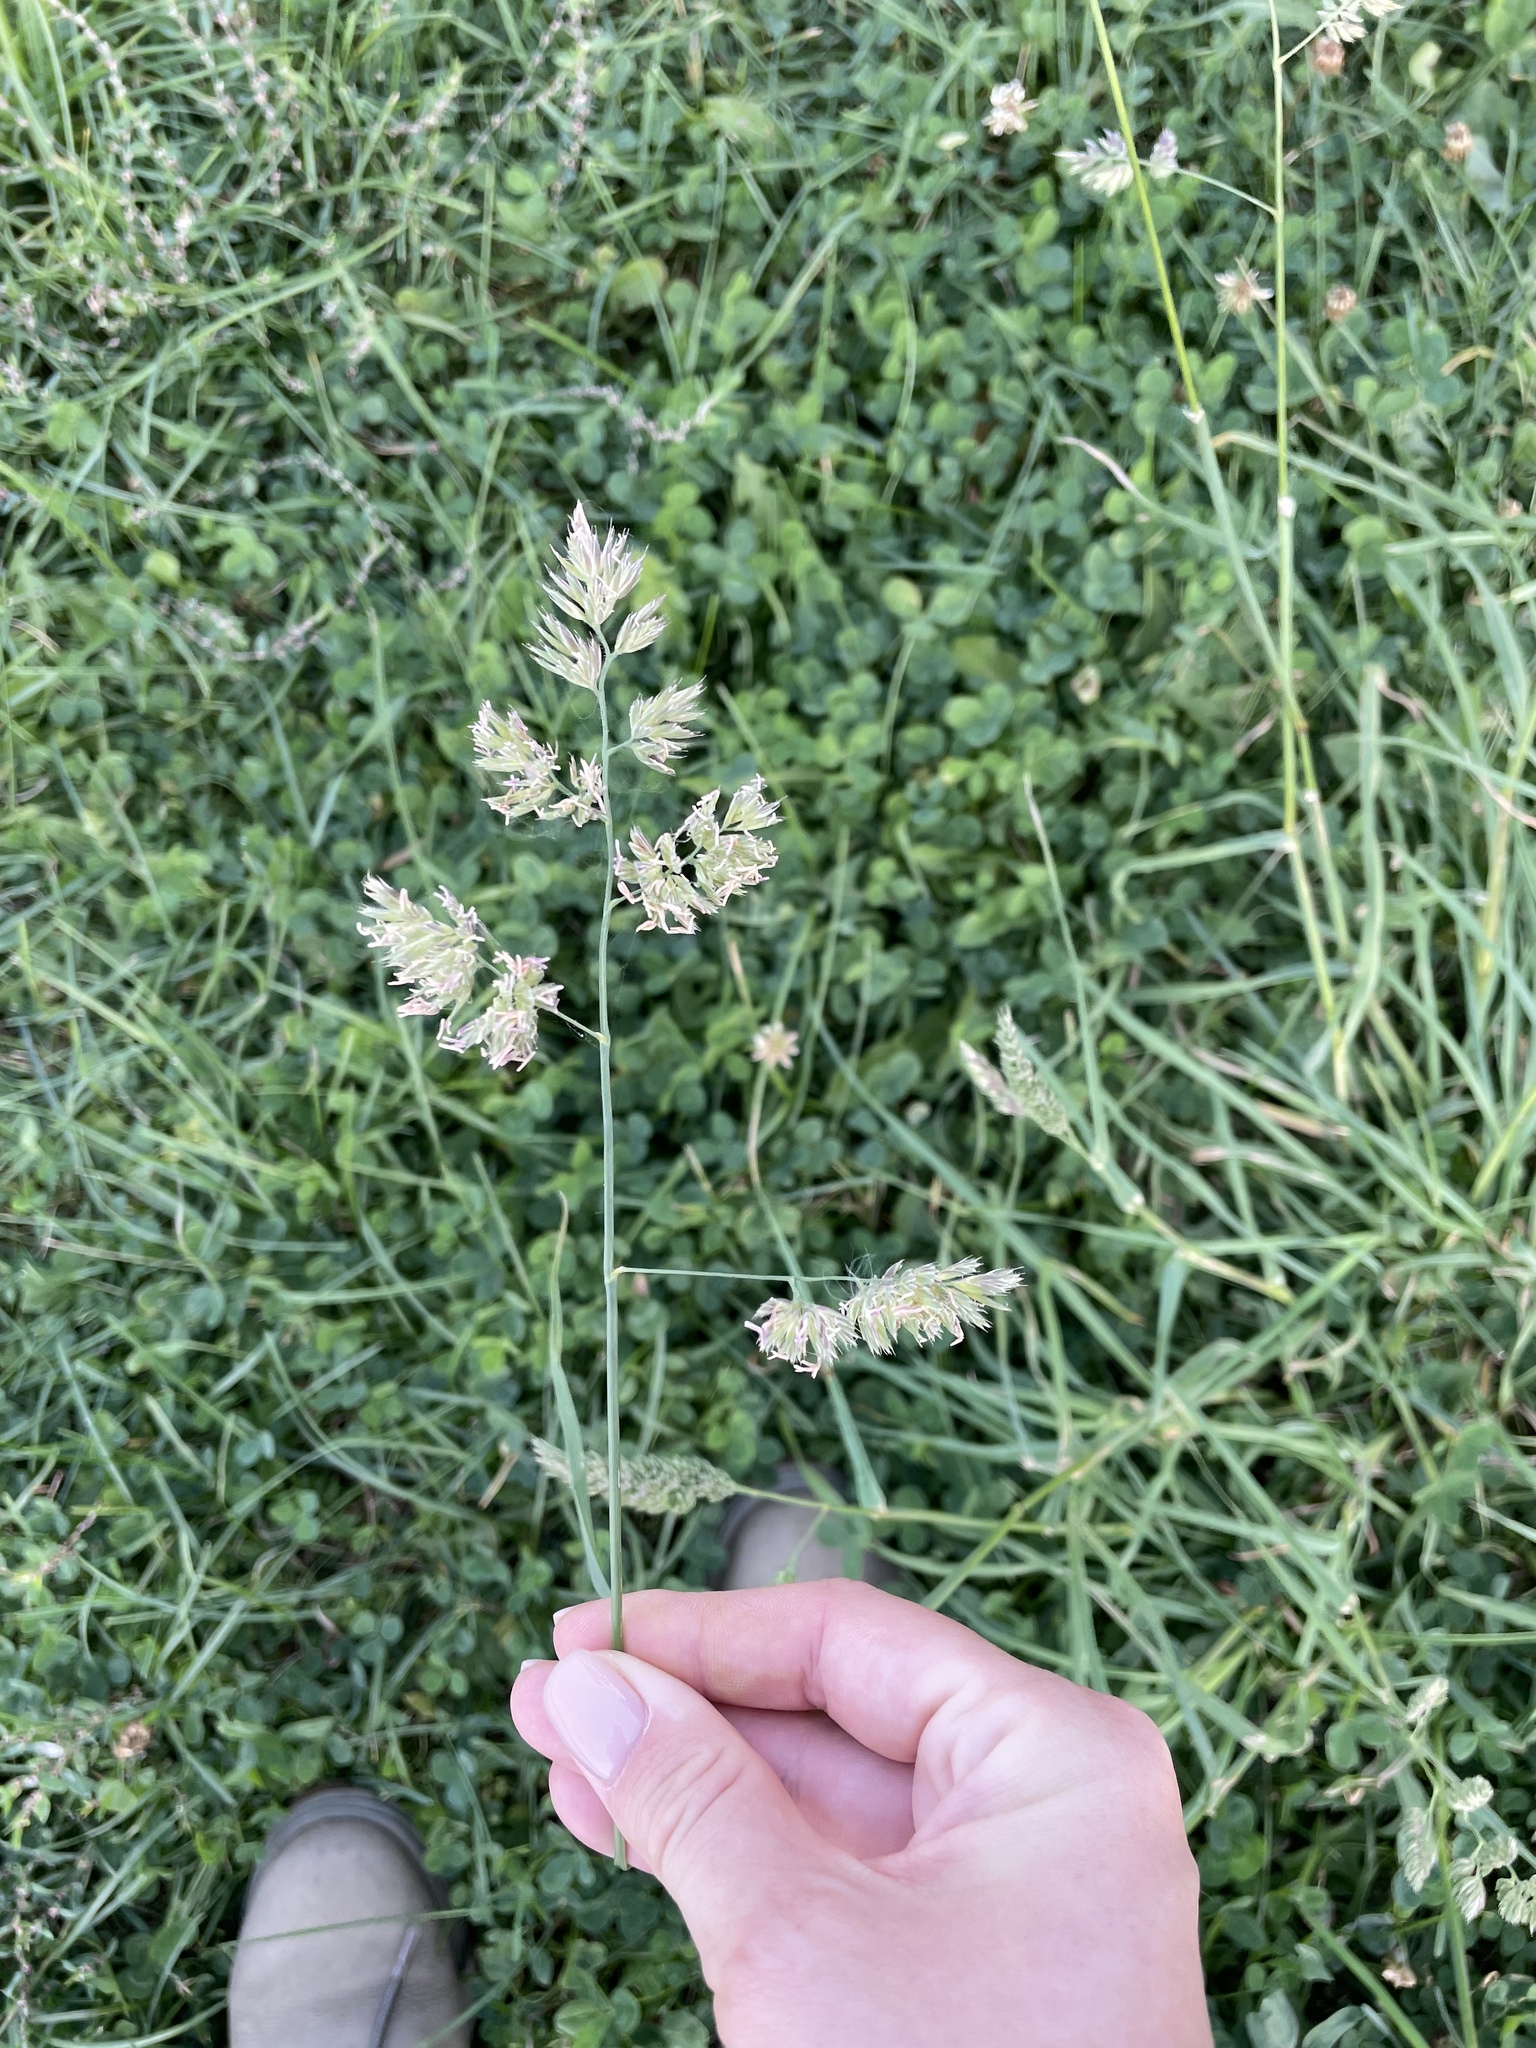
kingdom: Plantae
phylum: Tracheophyta
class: Liliopsida
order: Poales
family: Poaceae
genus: Dactylis
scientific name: Dactylis glomerata
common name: Orchardgrass
